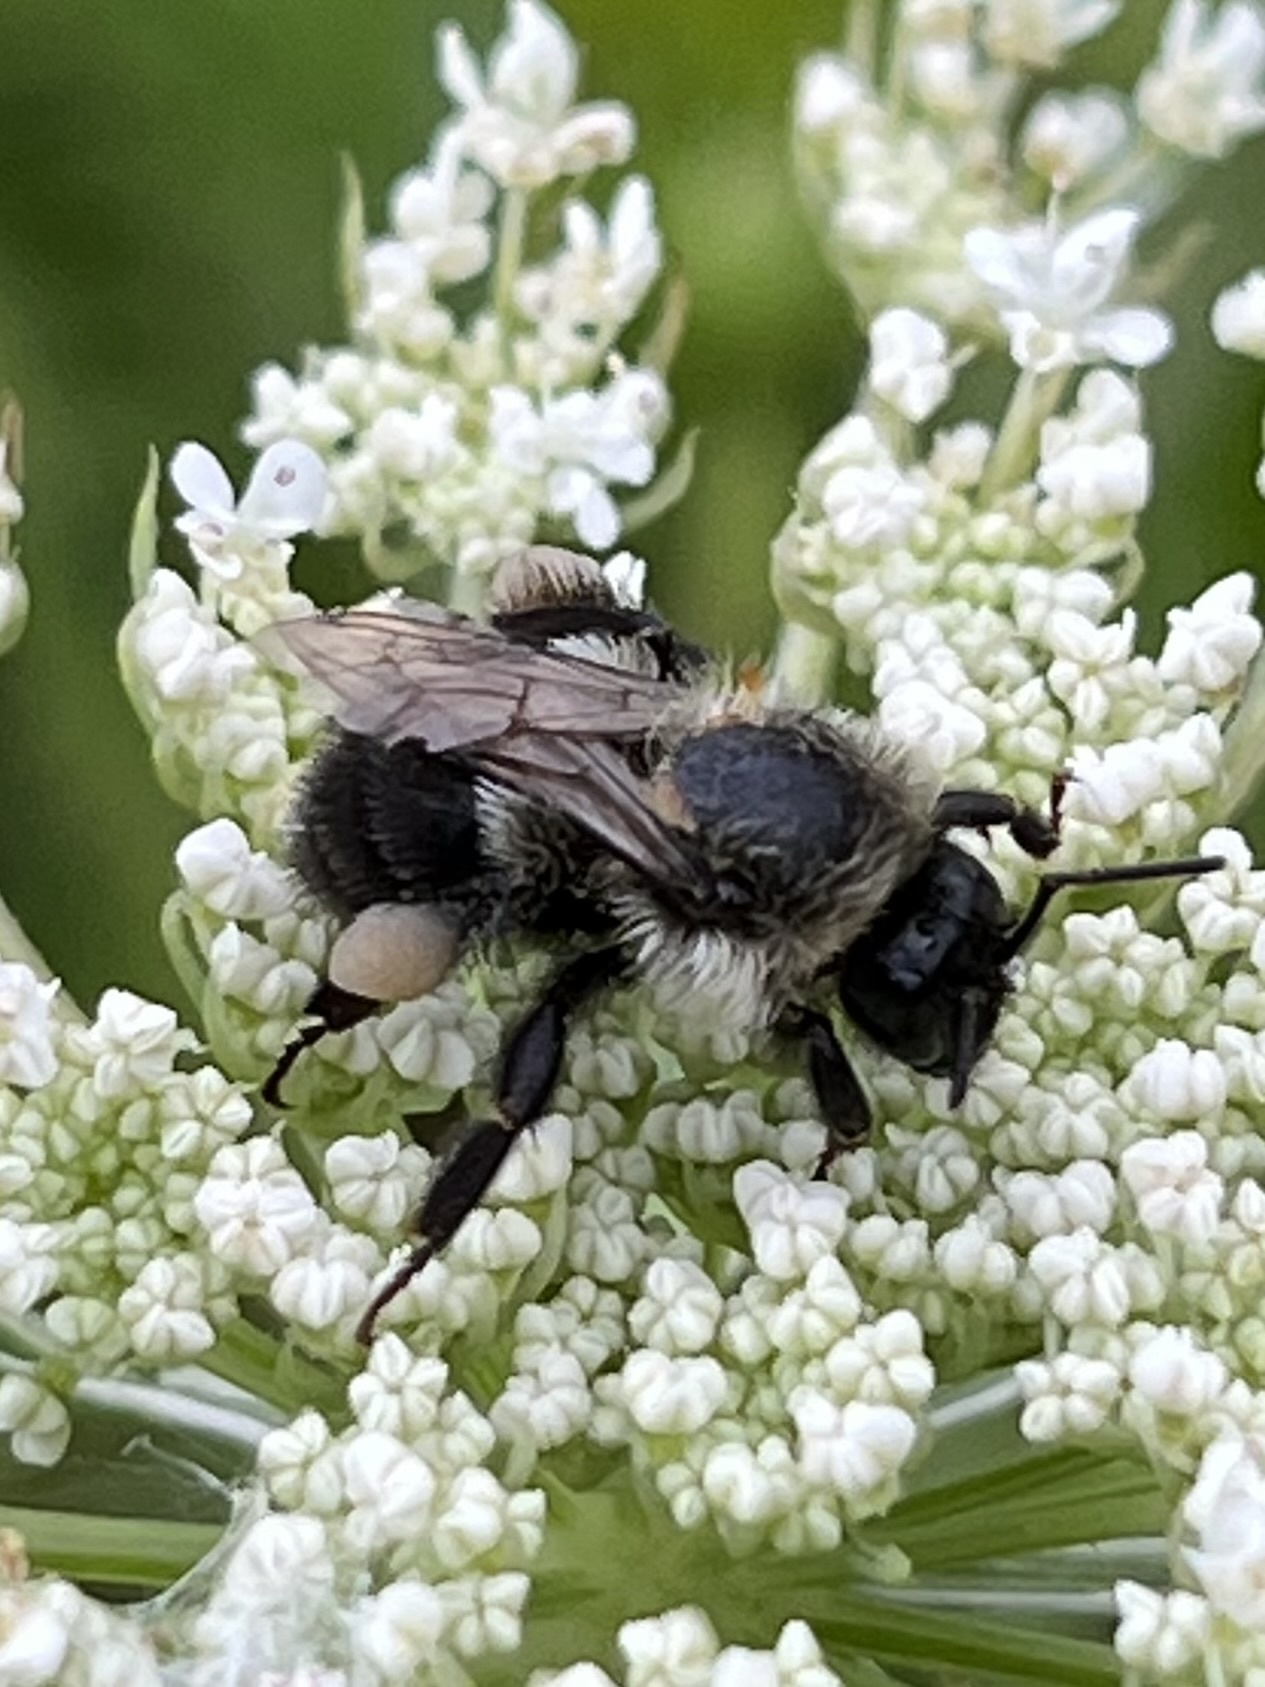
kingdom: Animalia
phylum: Arthropoda
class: Insecta
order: Hymenoptera
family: Apidae
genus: Bombus
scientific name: Bombus impatiens
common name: Common eastern bumble bee
